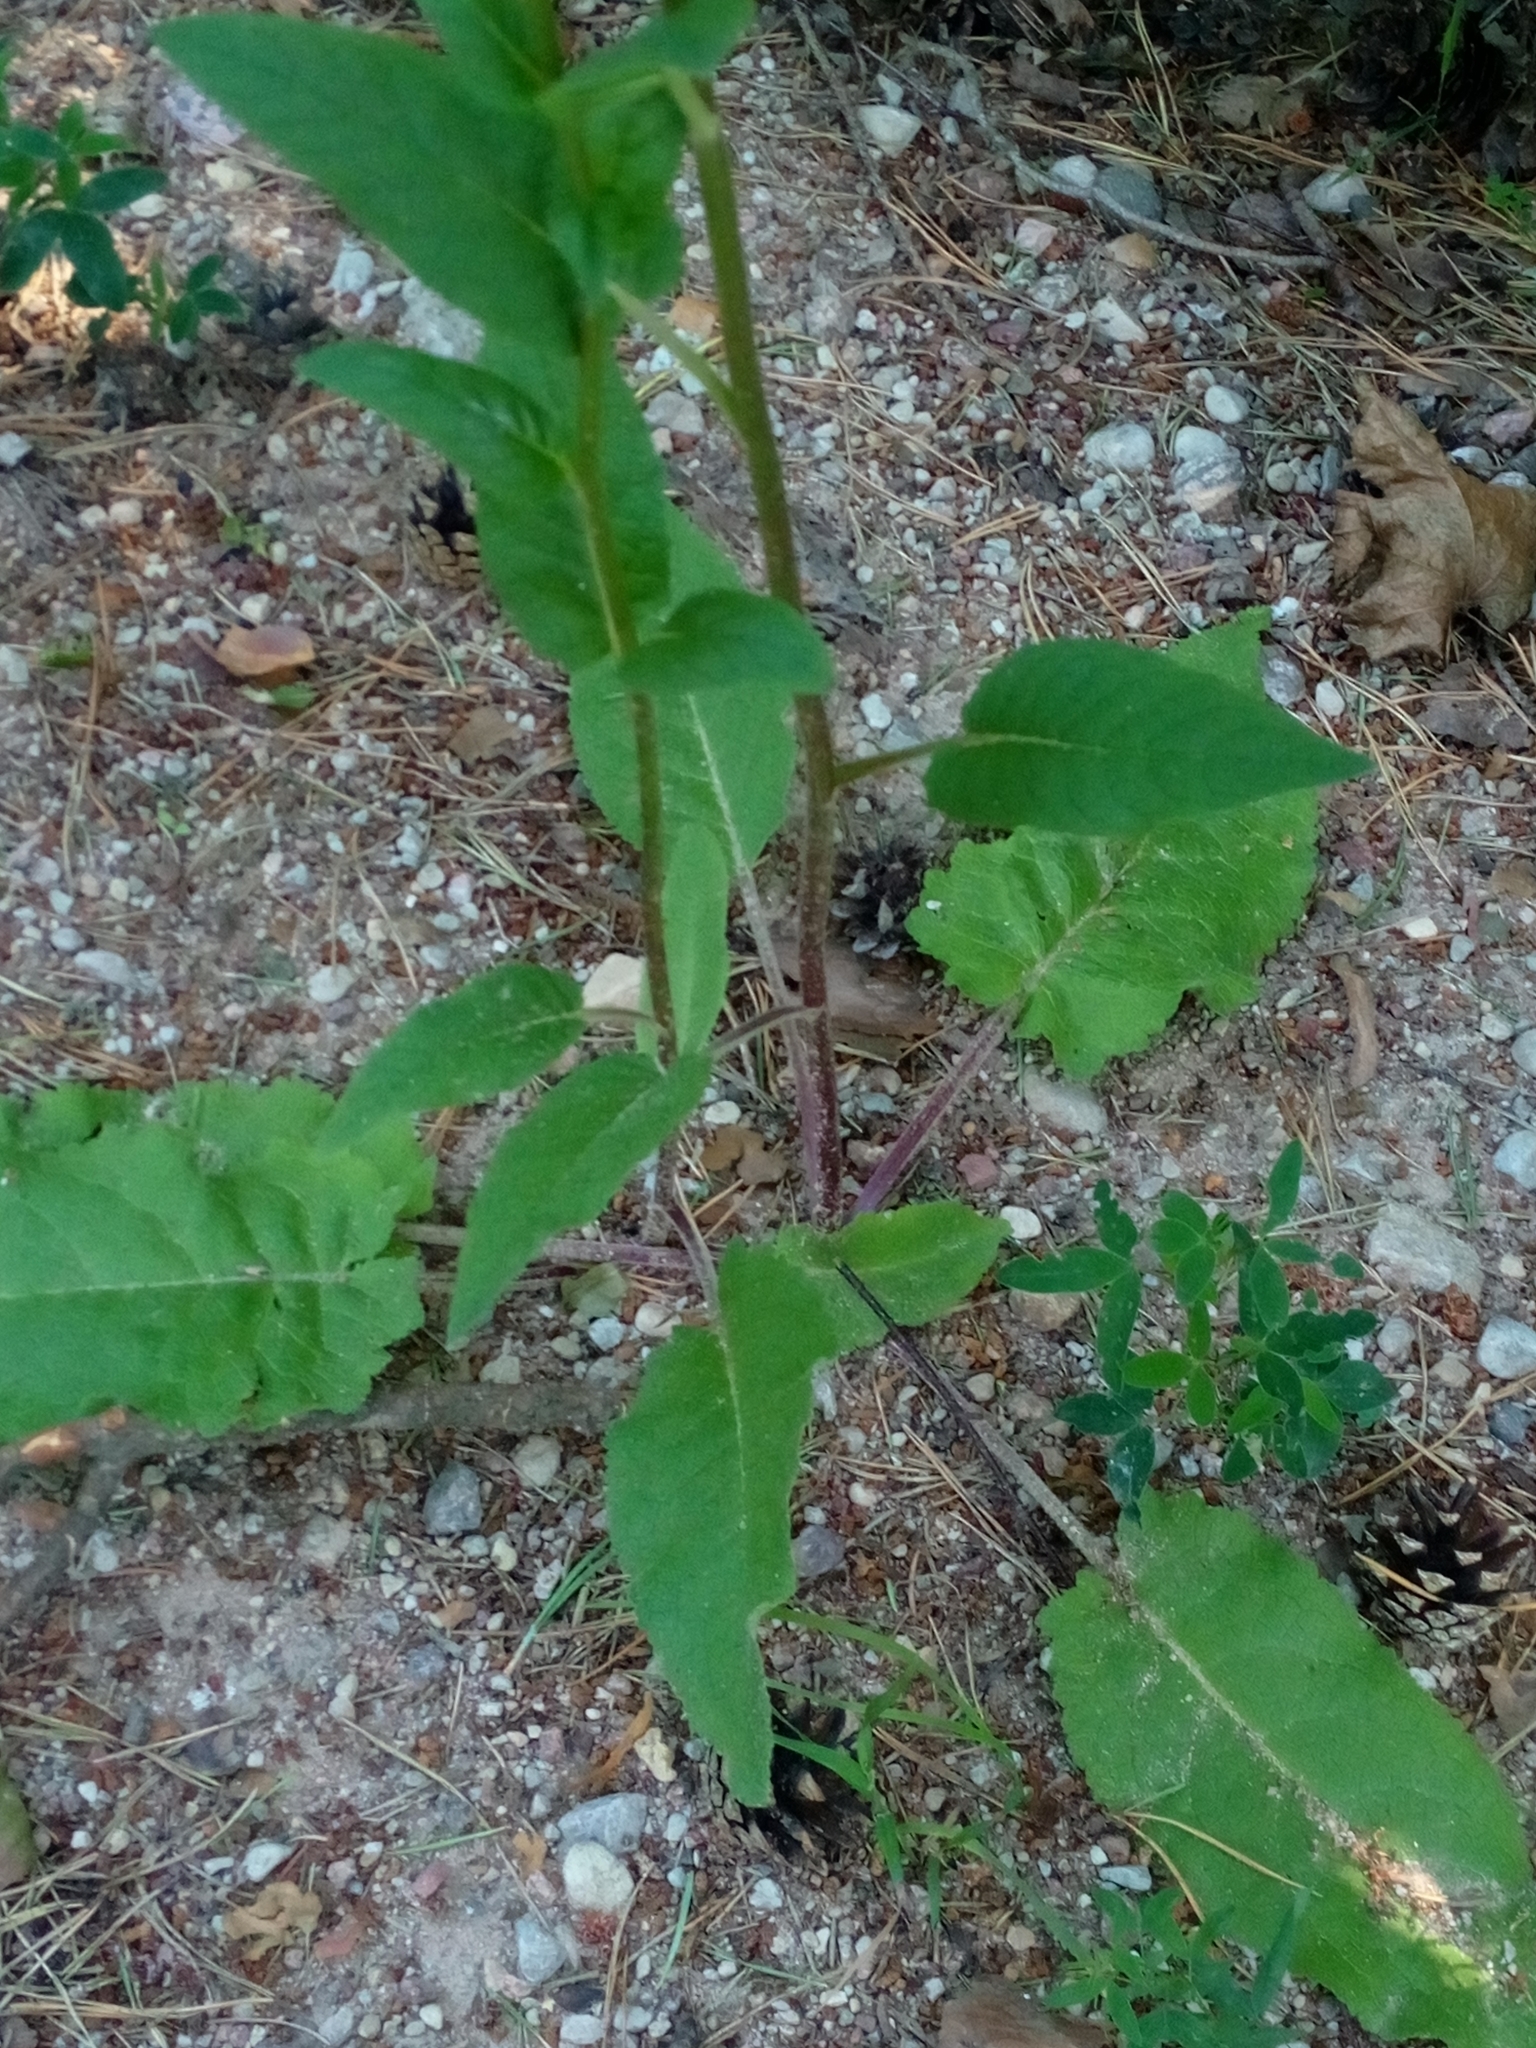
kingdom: Plantae
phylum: Tracheophyta
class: Magnoliopsida
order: Lamiales
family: Scrophulariaceae
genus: Verbascum
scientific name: Verbascum nigrum
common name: Dark mullein
